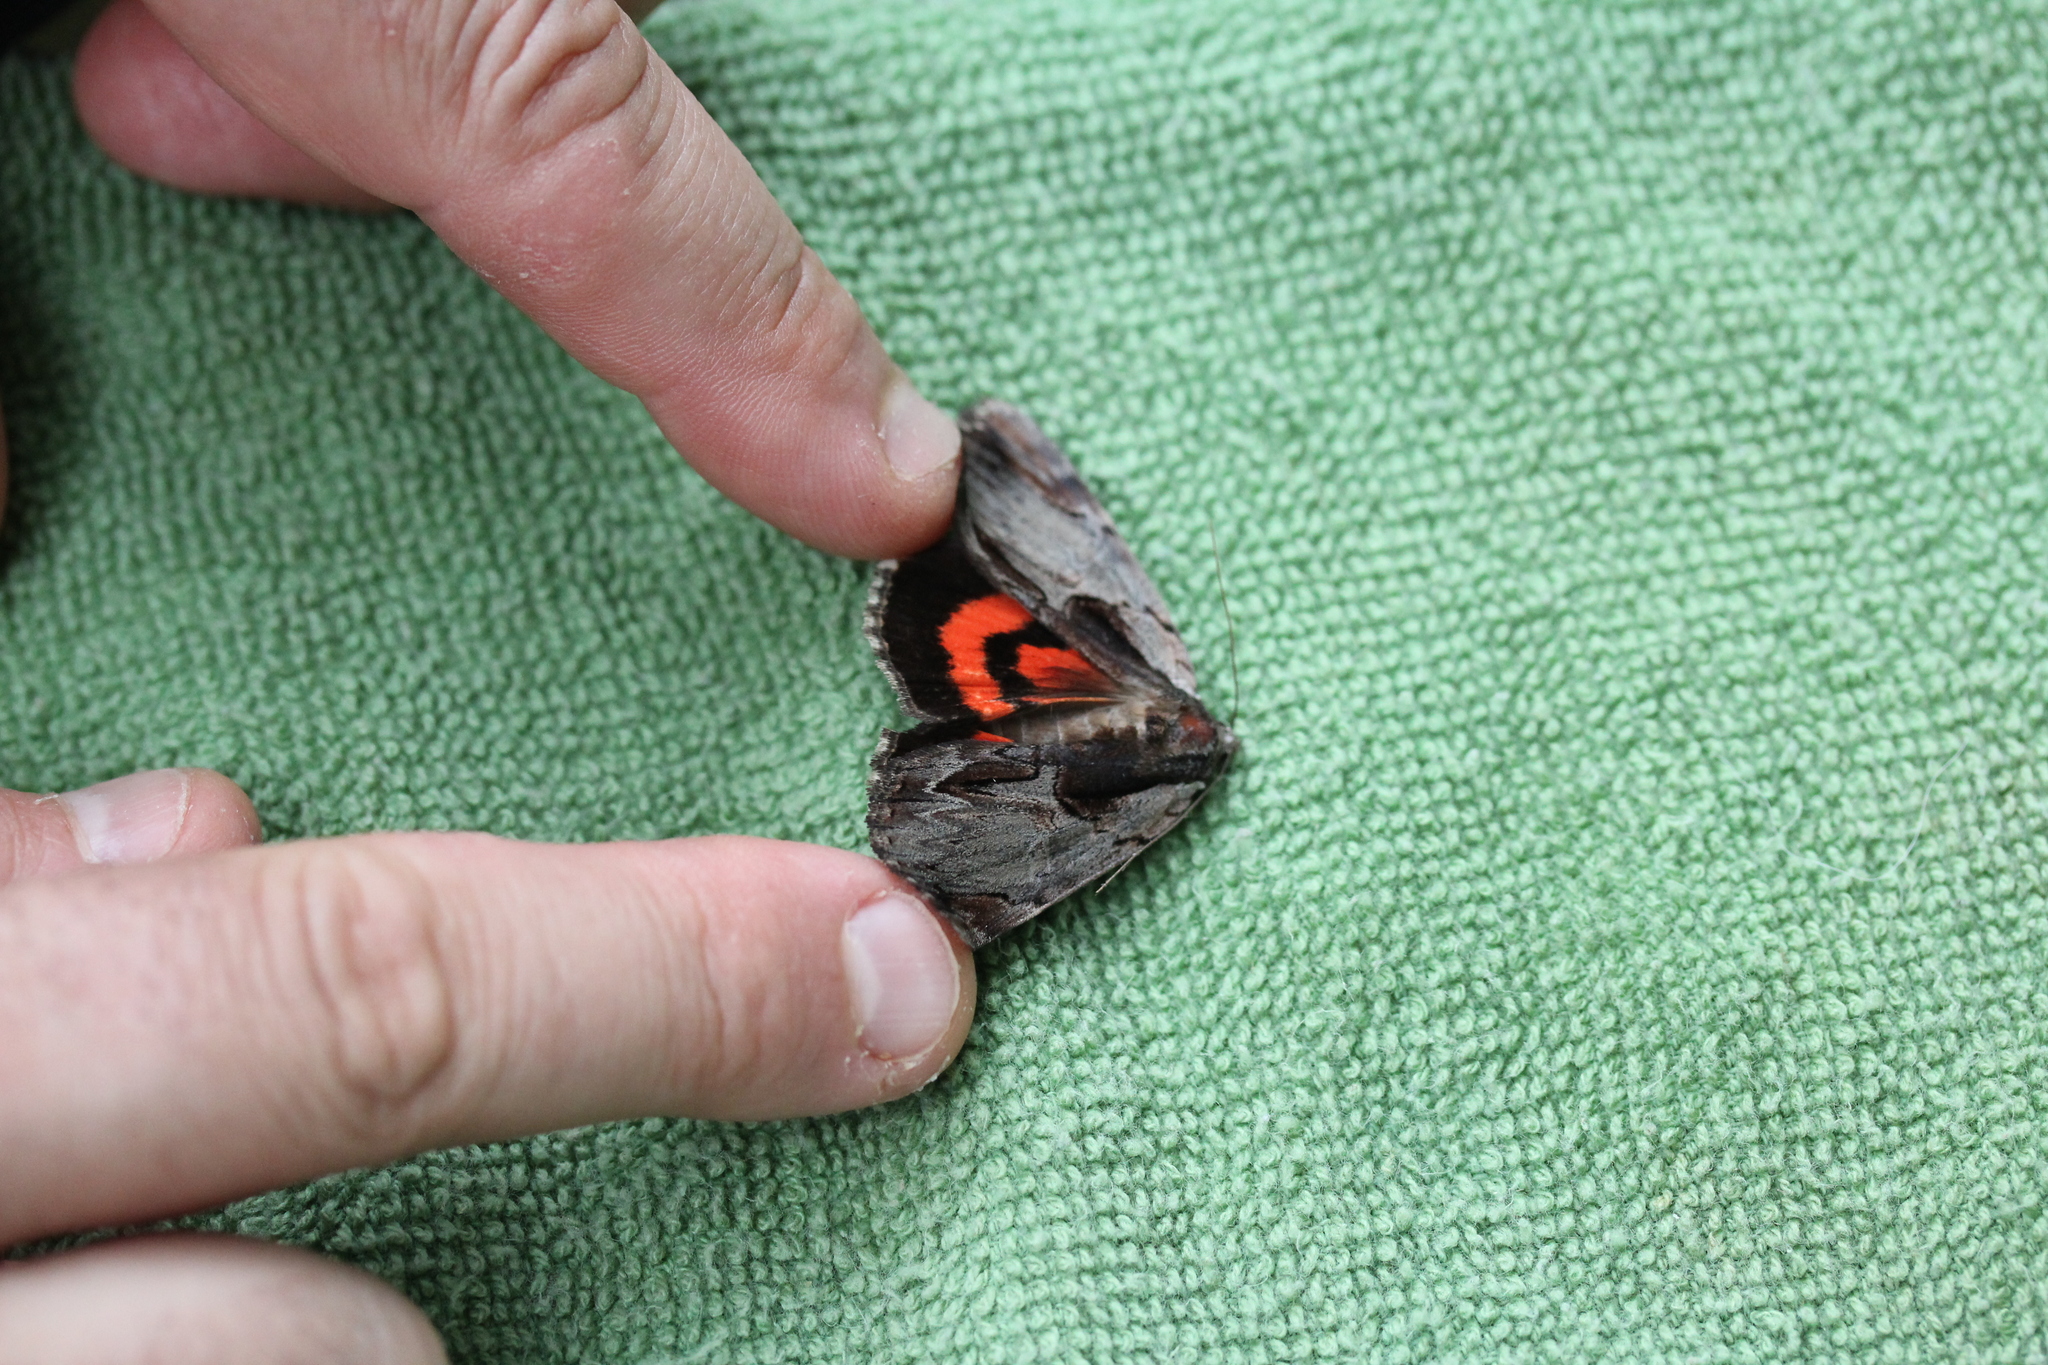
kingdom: Animalia
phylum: Arthropoda
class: Insecta
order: Lepidoptera
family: Erebidae
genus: Catocala
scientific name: Catocala ultronia
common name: Ultronia underwing
